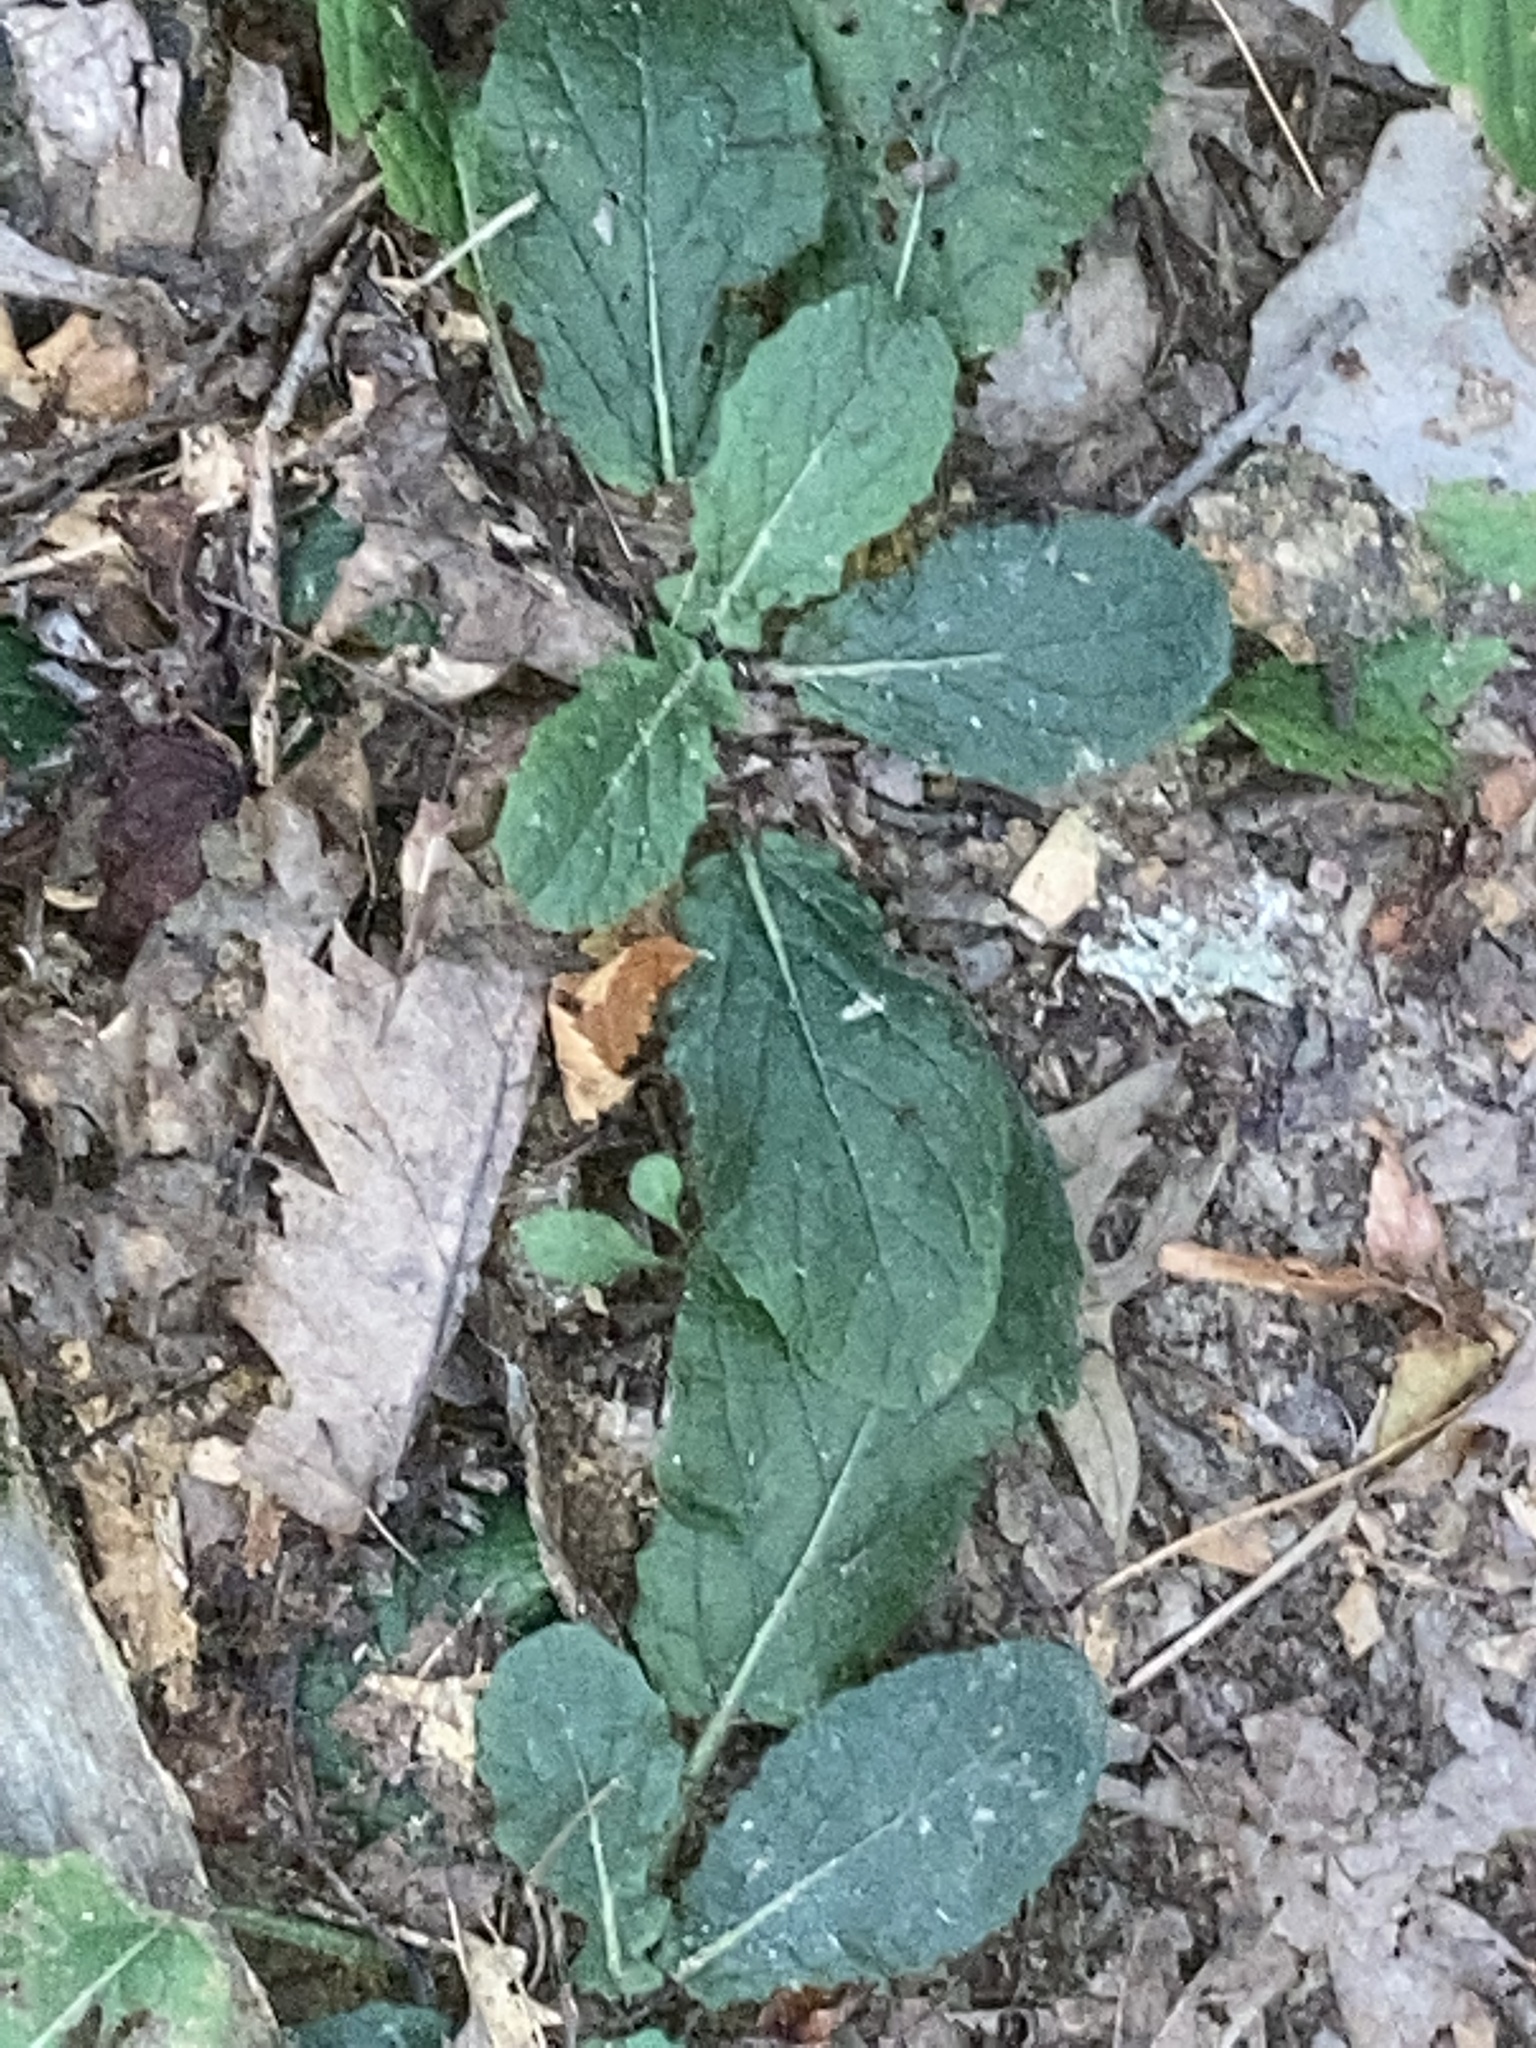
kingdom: Plantae
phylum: Tracheophyta
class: Magnoliopsida
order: Lamiales
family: Lamiaceae
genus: Salvia
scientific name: Salvia lyrata
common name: Cancerweed
